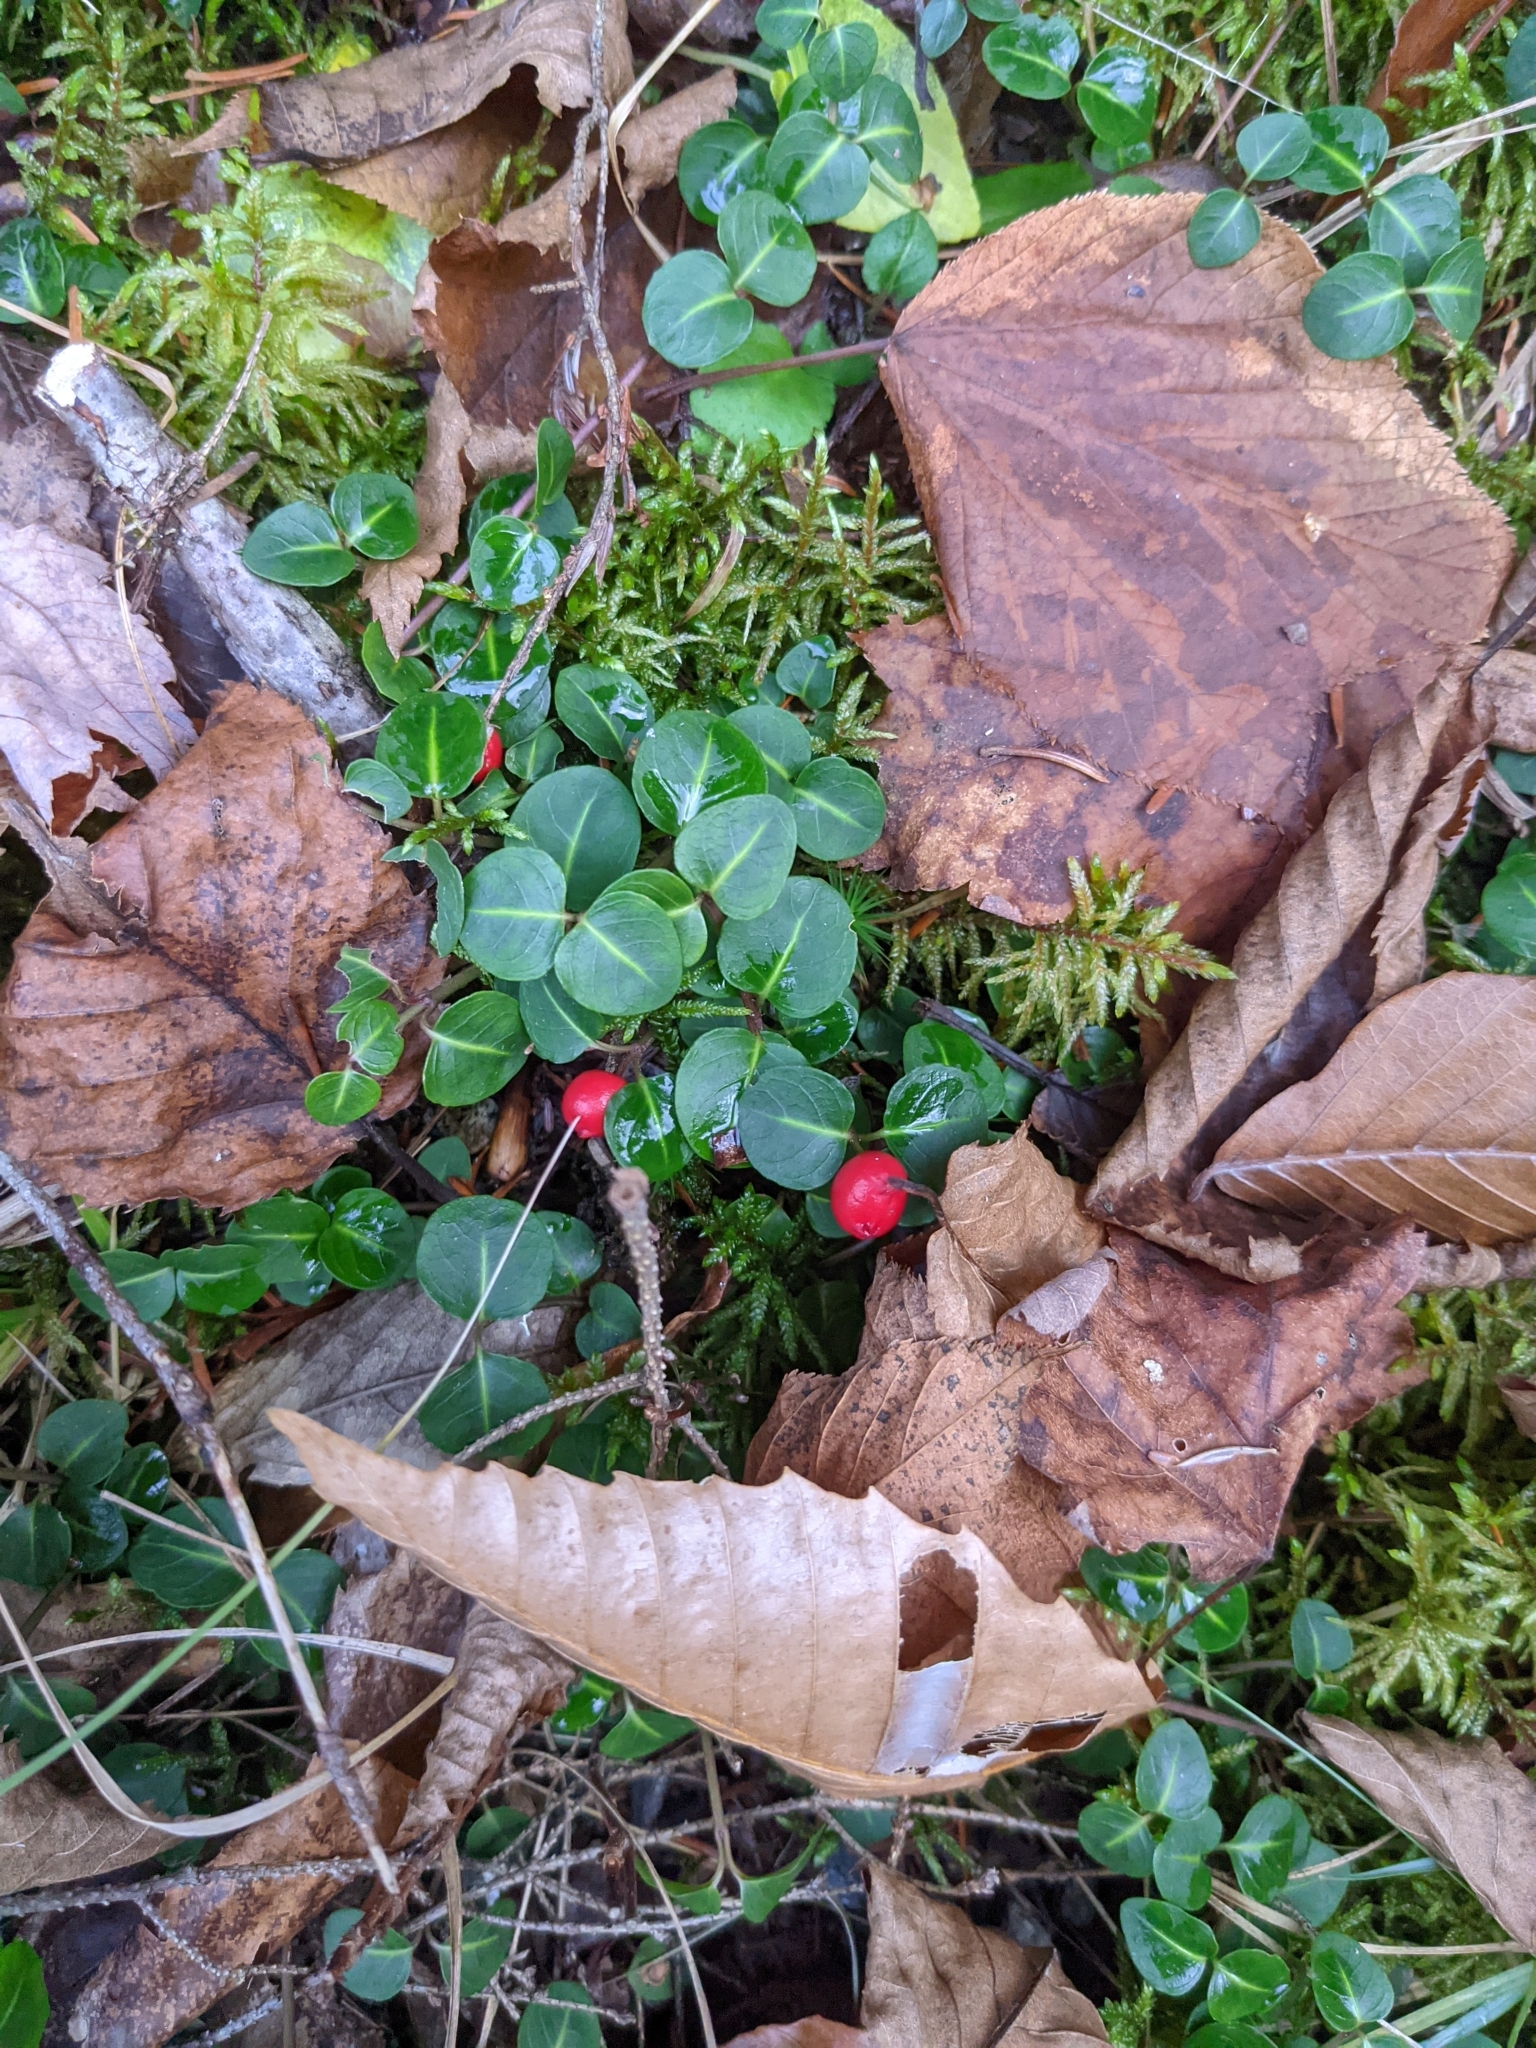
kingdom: Plantae
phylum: Tracheophyta
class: Magnoliopsida
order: Gentianales
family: Rubiaceae
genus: Mitchella
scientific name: Mitchella repens
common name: Partridge-berry
